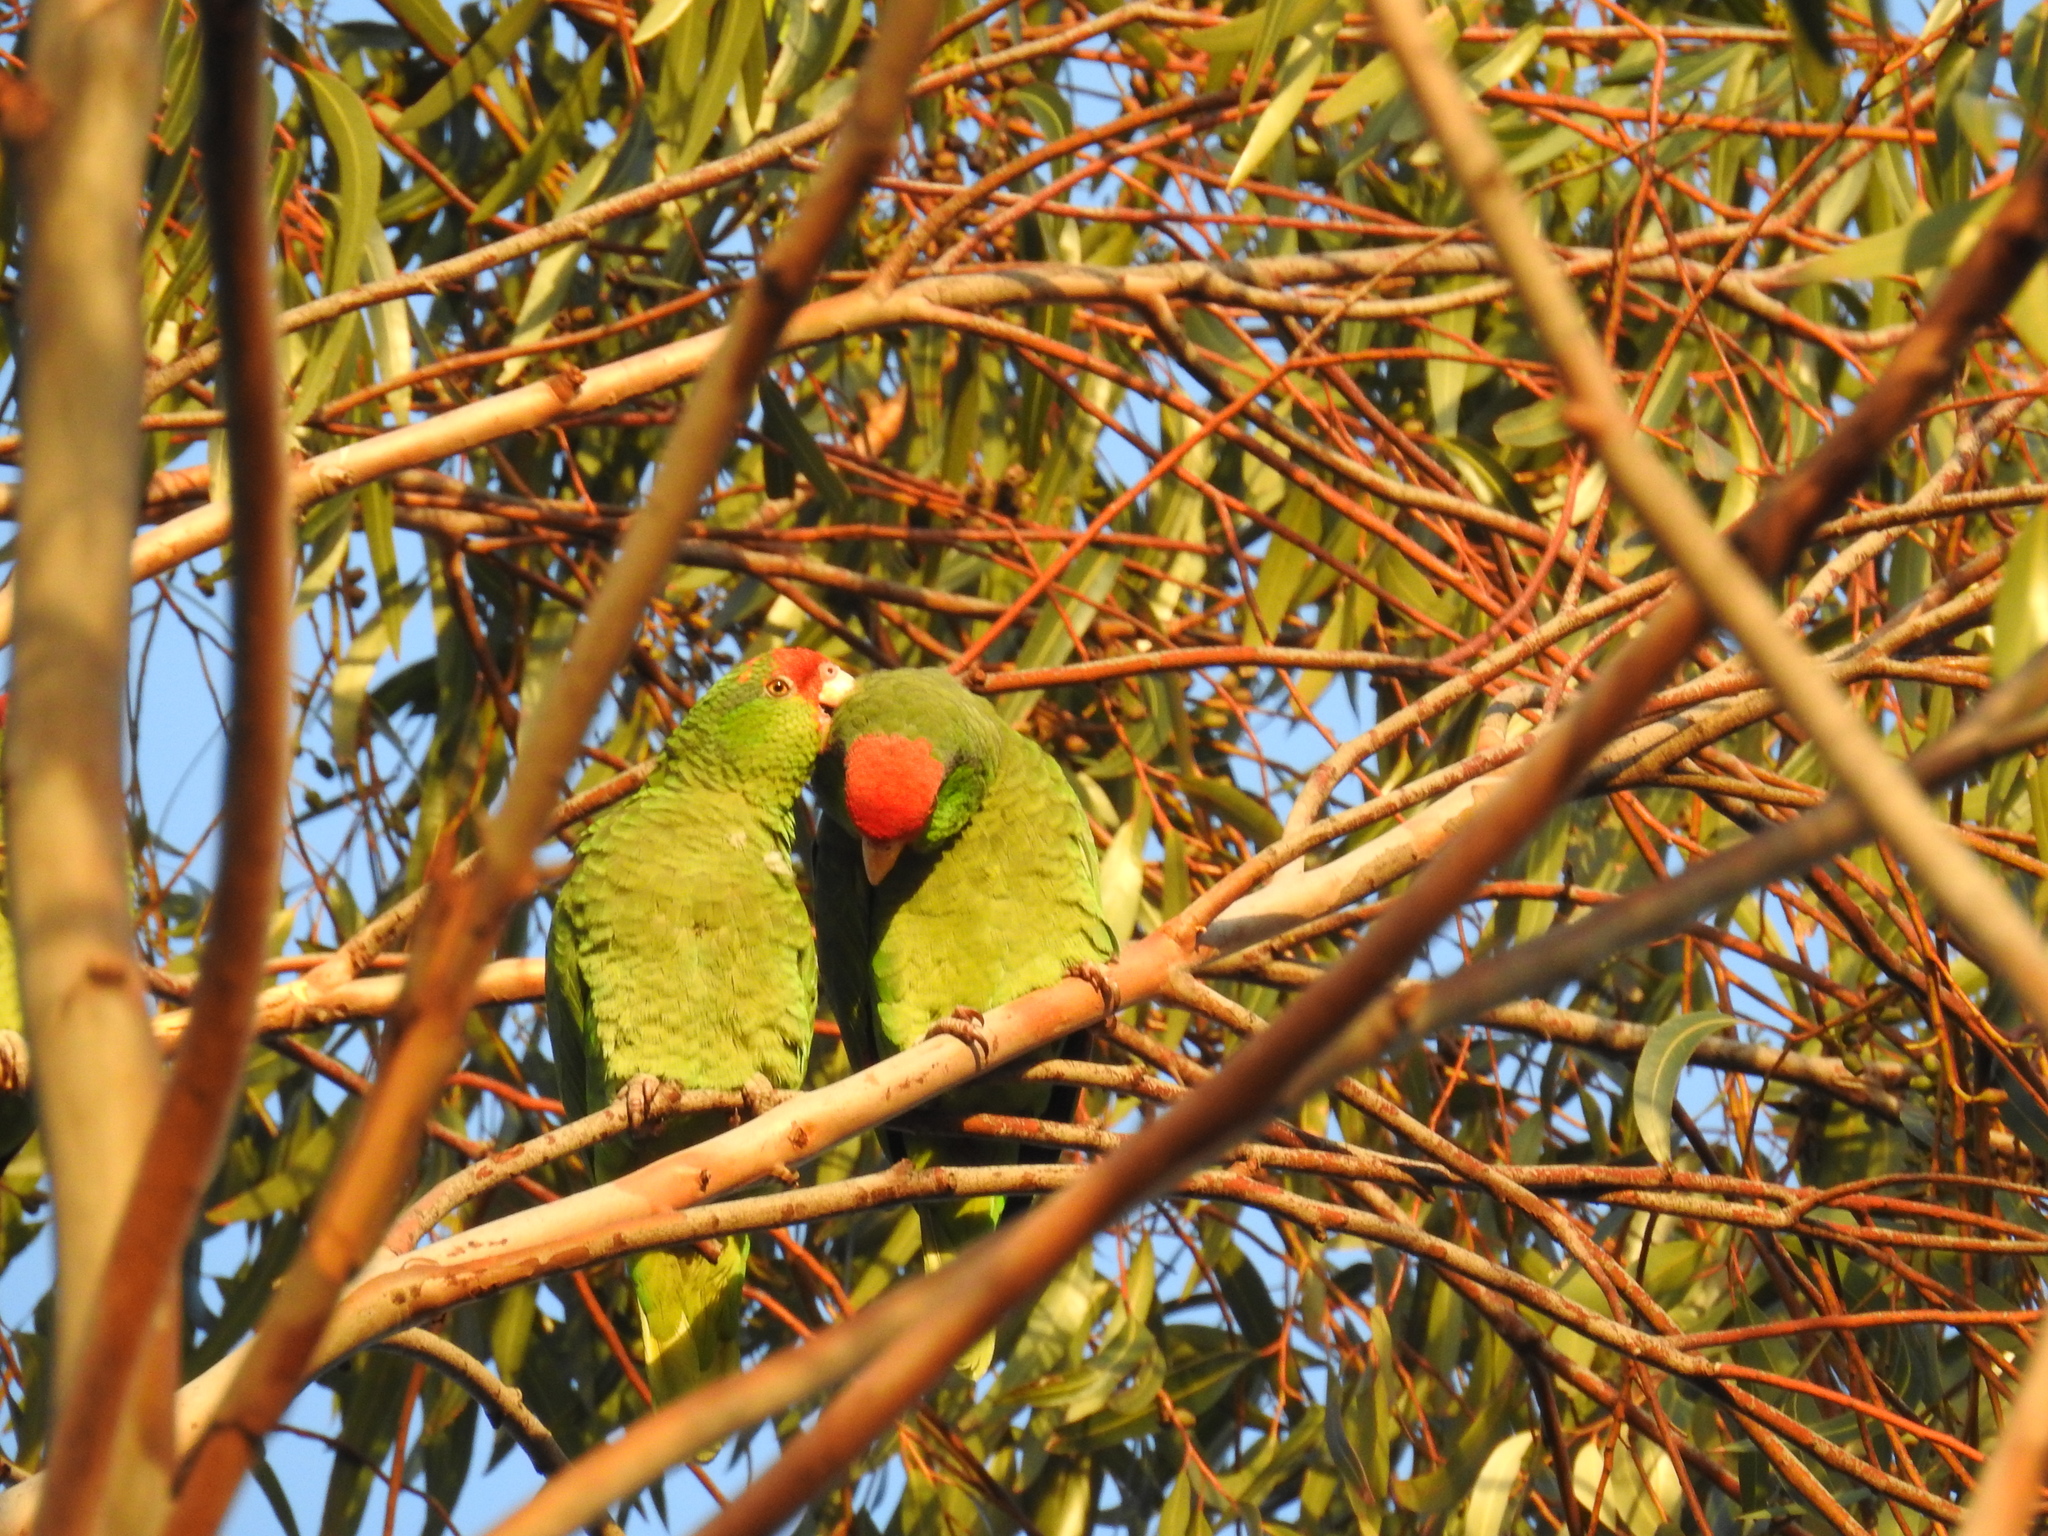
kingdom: Animalia
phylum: Chordata
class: Aves
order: Psittaciformes
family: Psittacidae
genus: Amazona
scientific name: Amazona viridigenalis
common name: Red-crowned amazon
